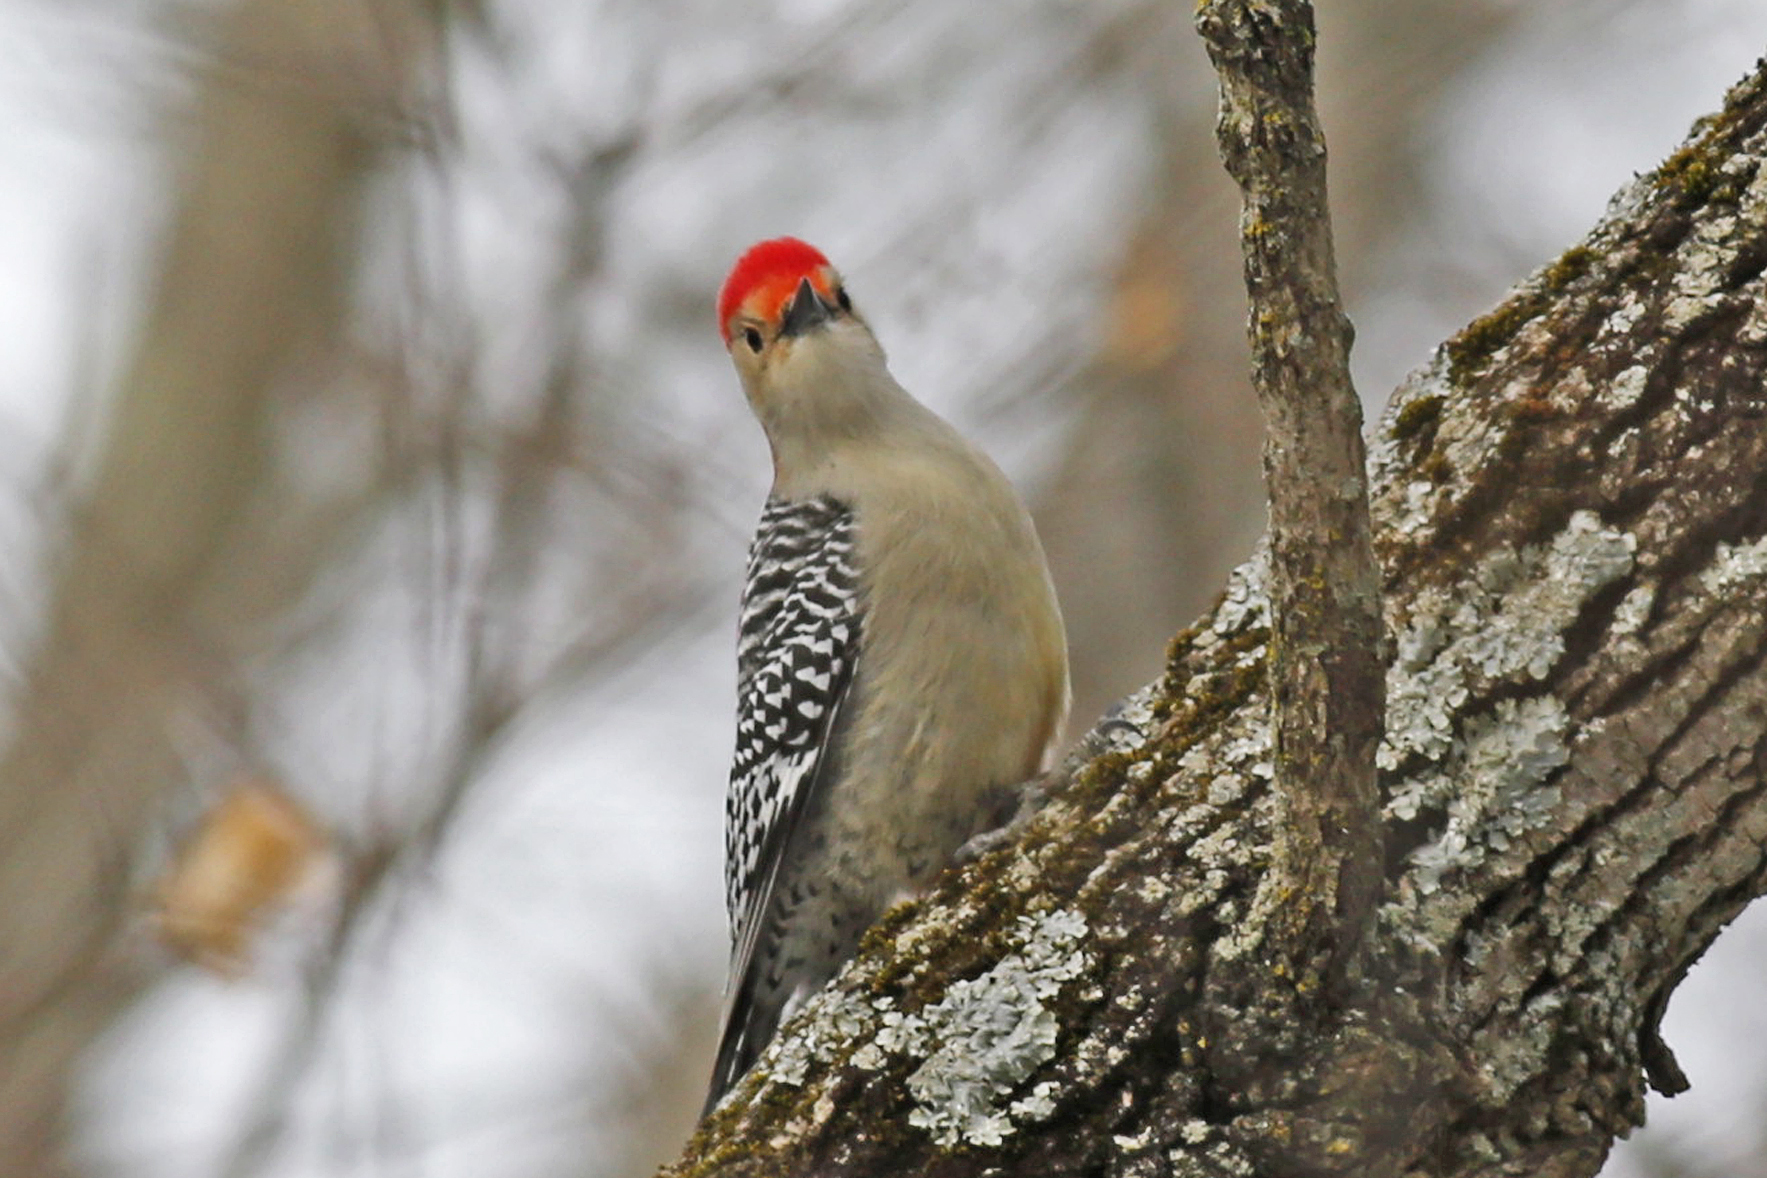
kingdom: Animalia
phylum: Chordata
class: Aves
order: Piciformes
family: Picidae
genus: Melanerpes
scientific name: Melanerpes carolinus
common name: Red-bellied woodpecker
